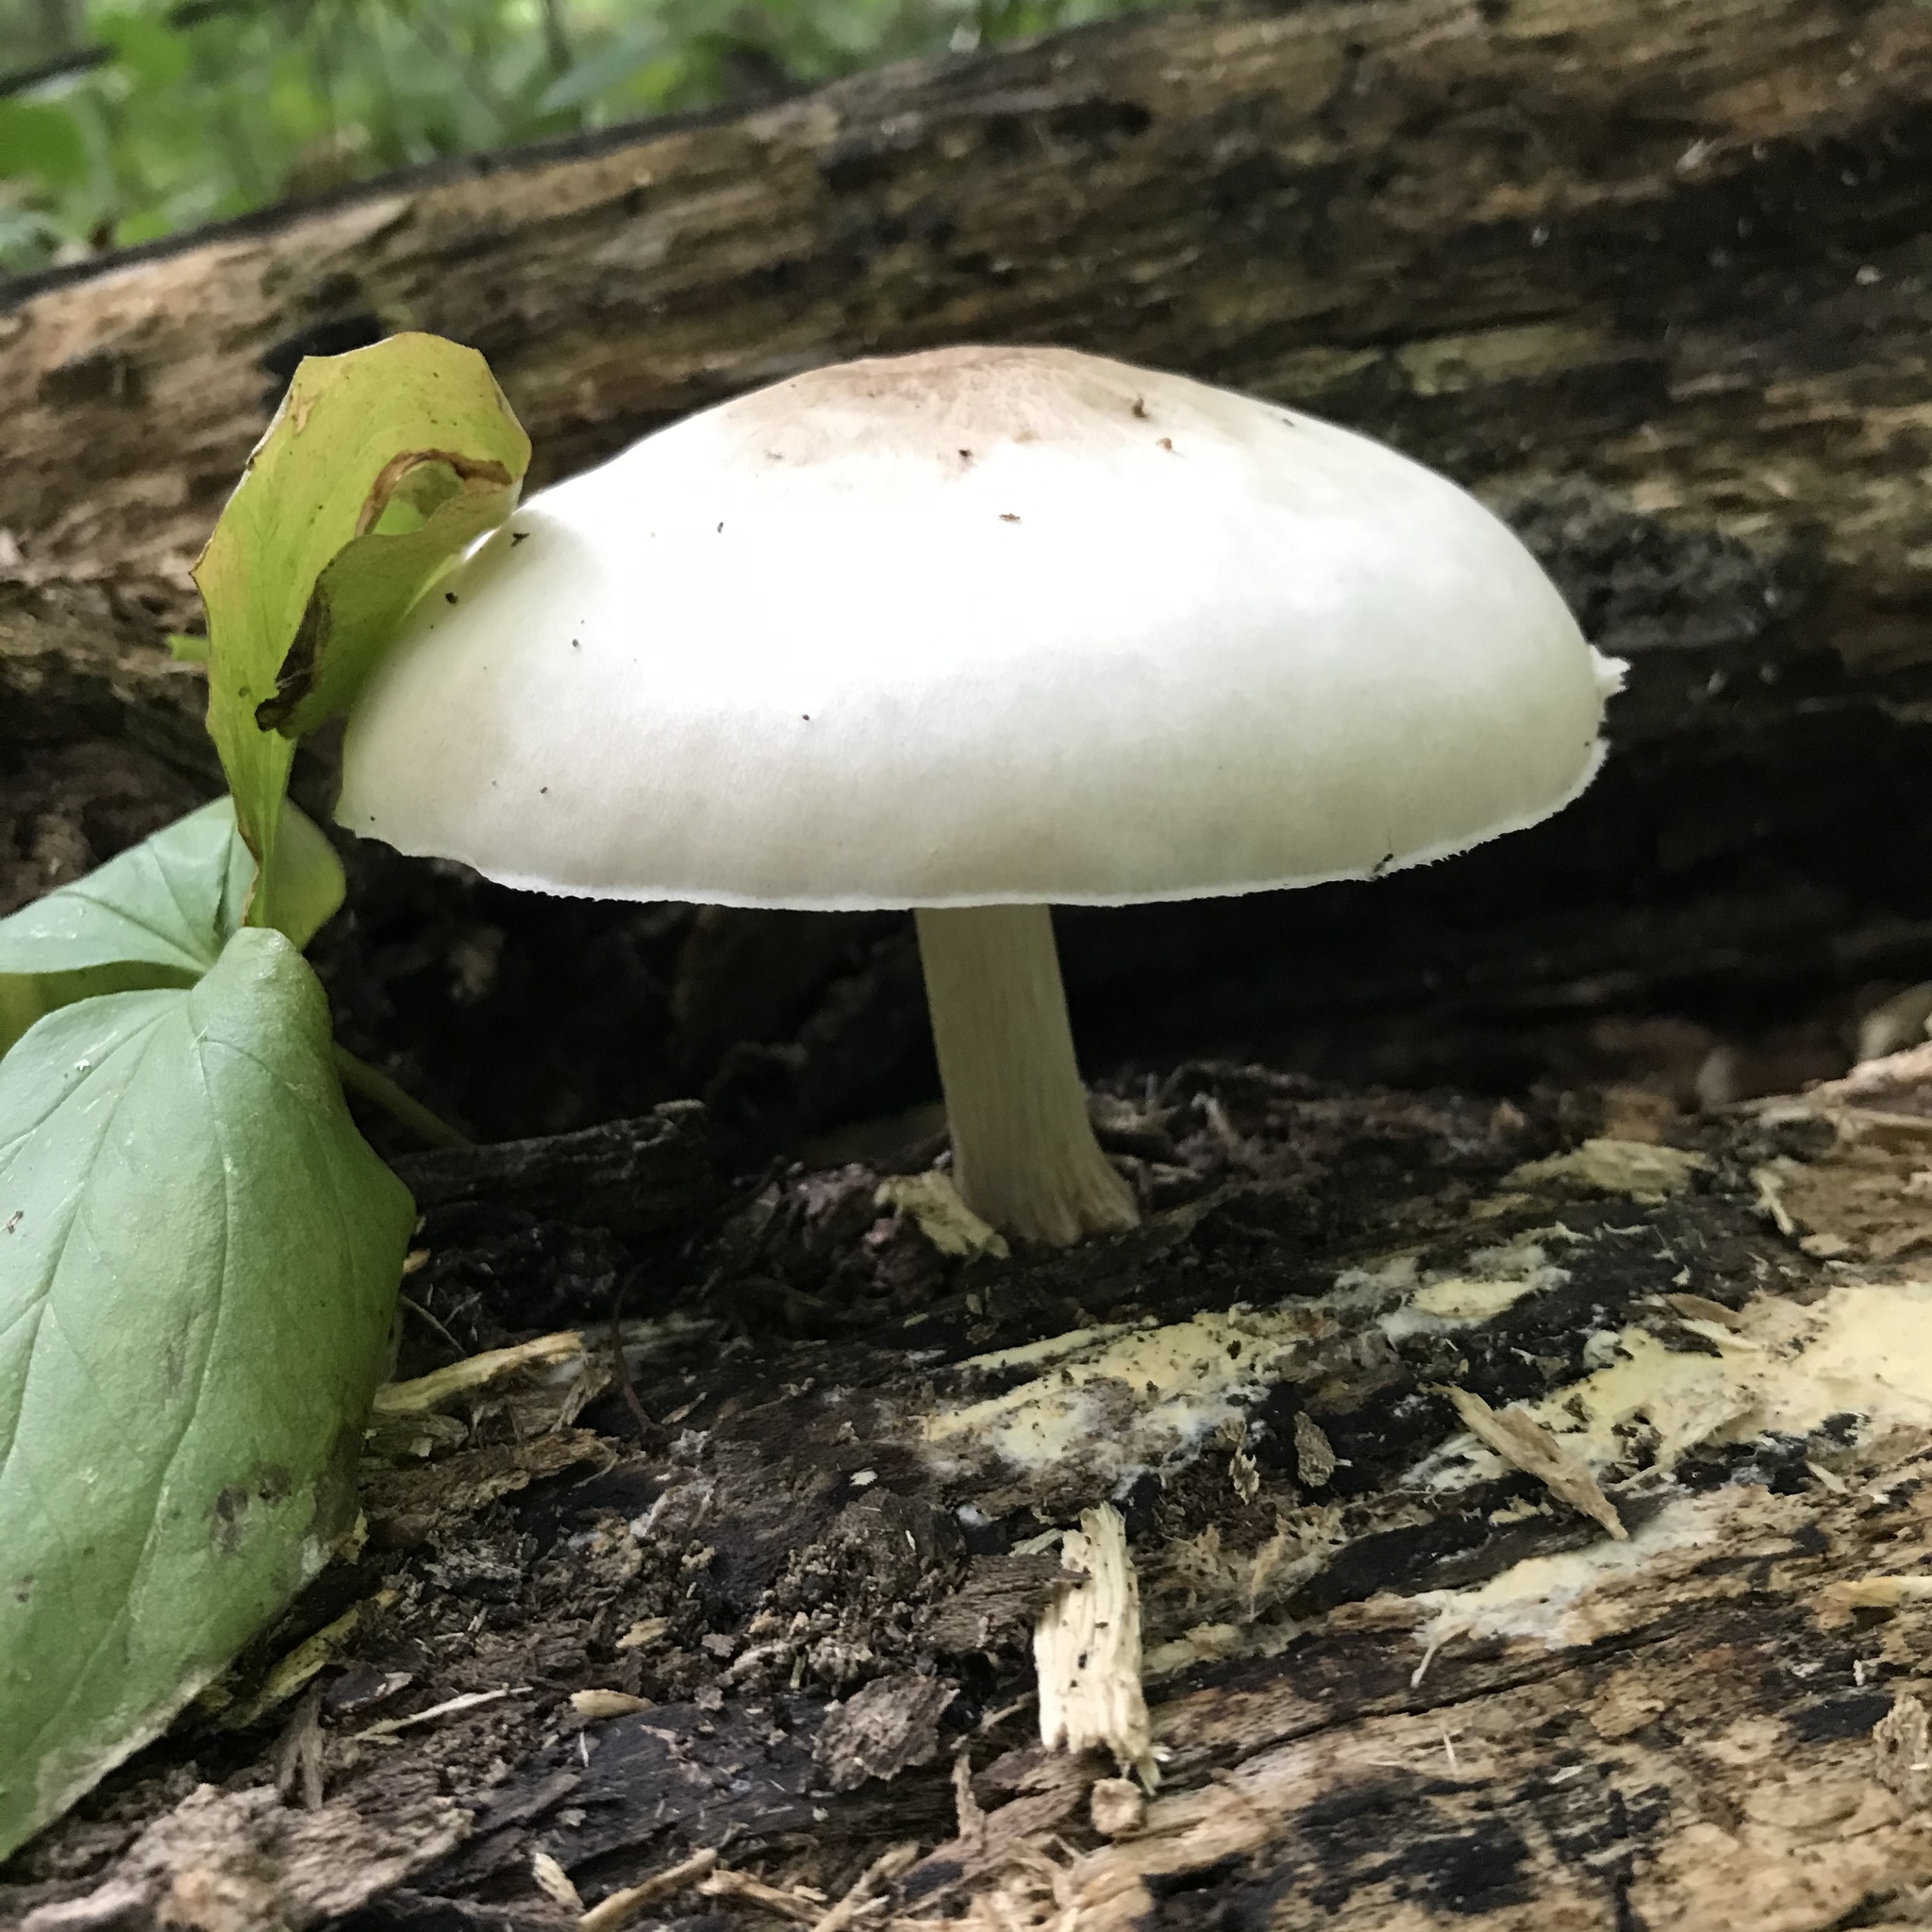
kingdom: Fungi
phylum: Basidiomycota
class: Agaricomycetes
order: Agaricales
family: Pluteaceae
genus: Pluteus
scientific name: Pluteus petasatus
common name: Scaly shield
